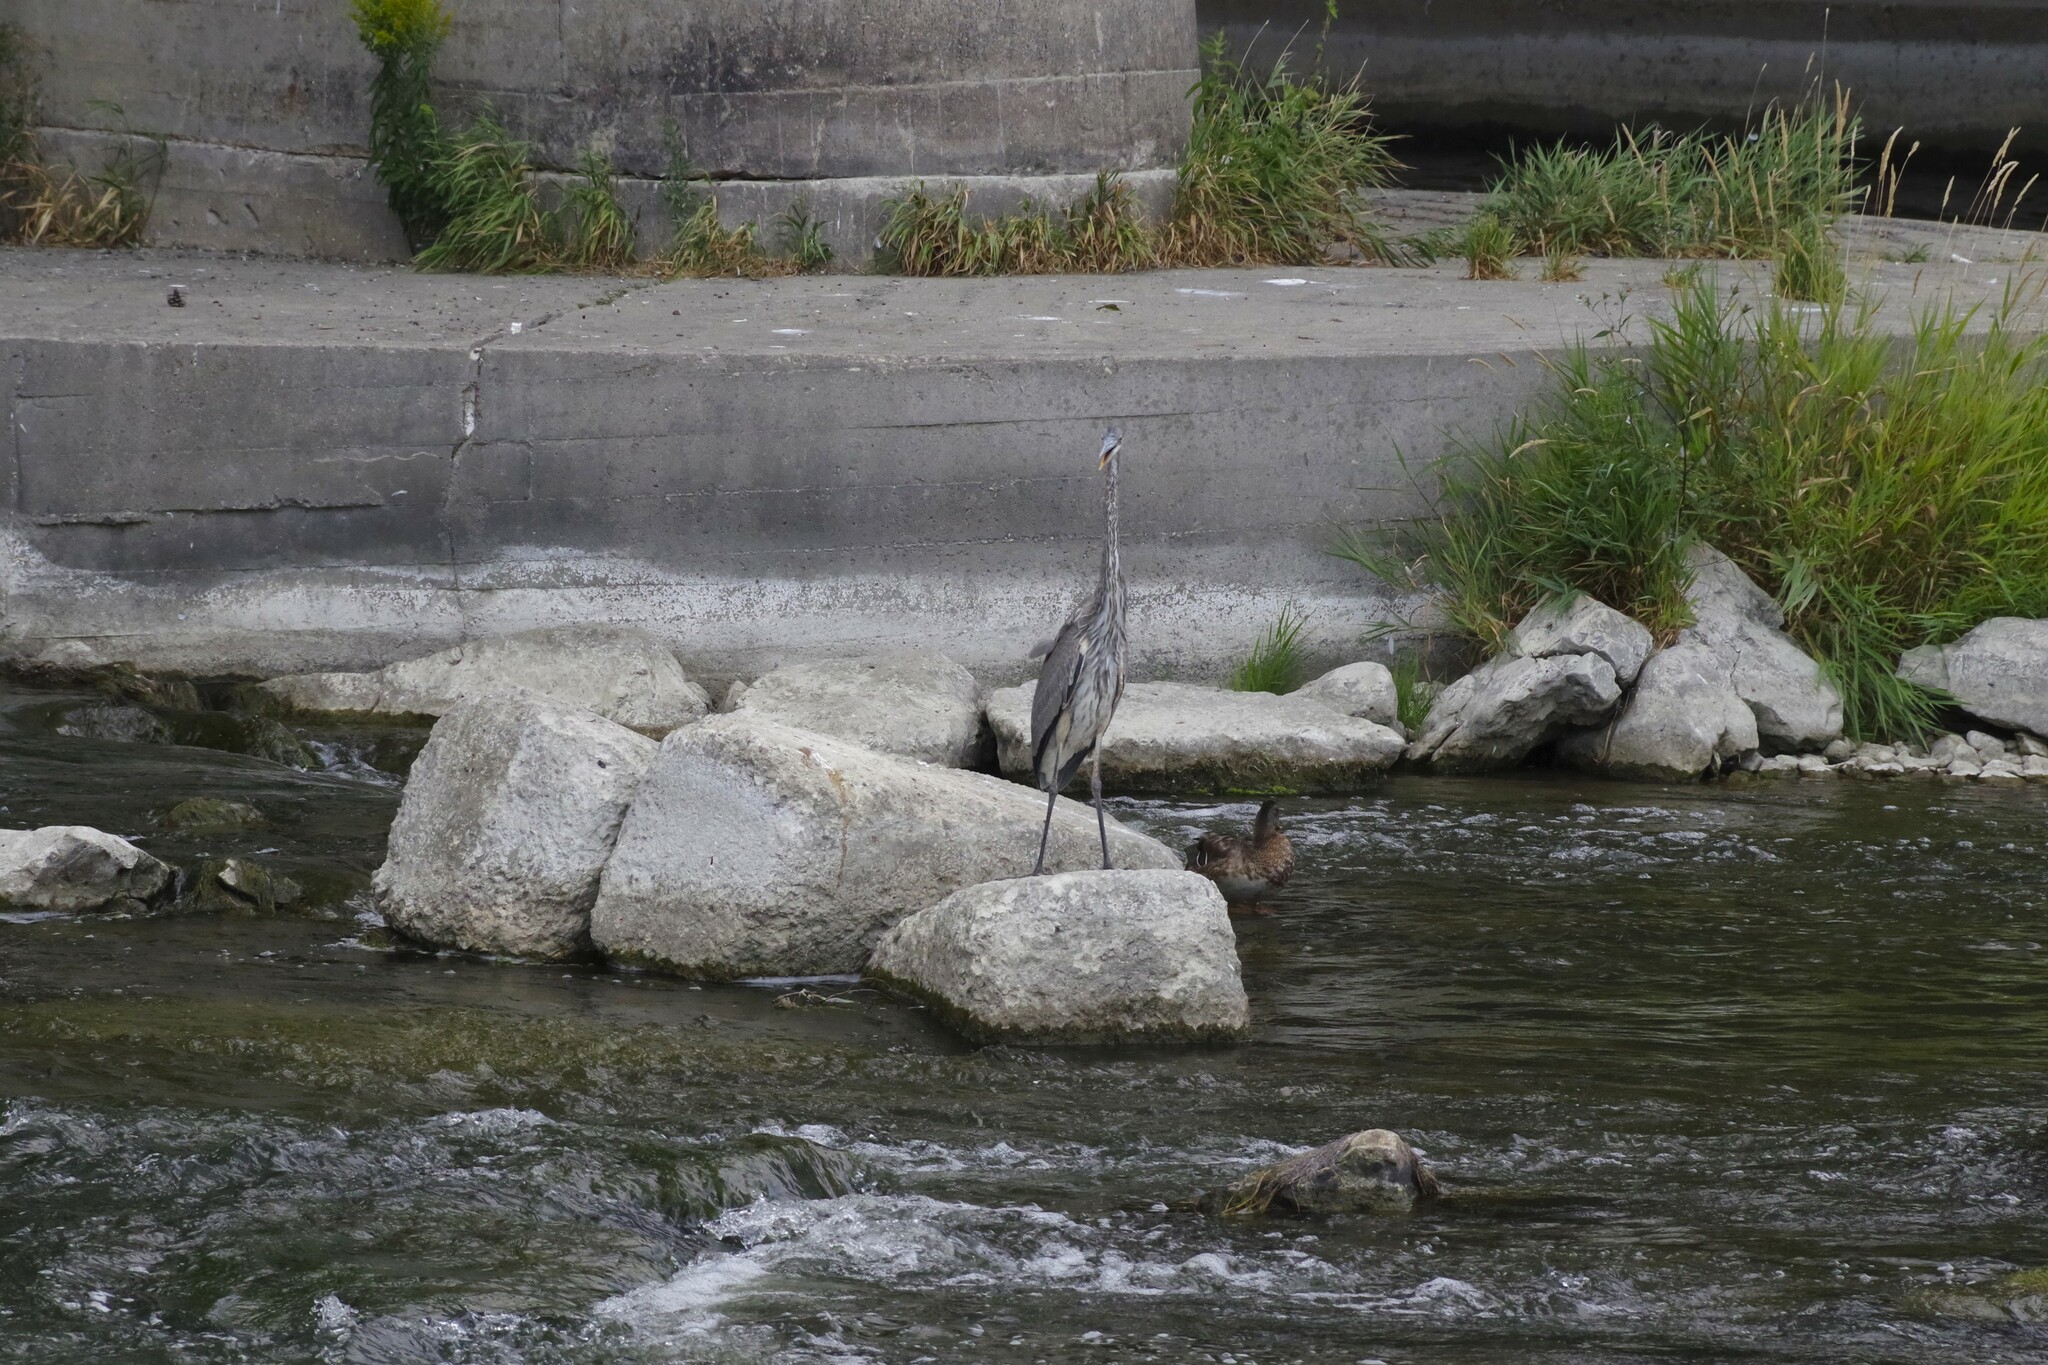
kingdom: Animalia
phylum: Chordata
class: Aves
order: Pelecaniformes
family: Ardeidae
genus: Ardea
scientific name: Ardea herodias
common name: Great blue heron
